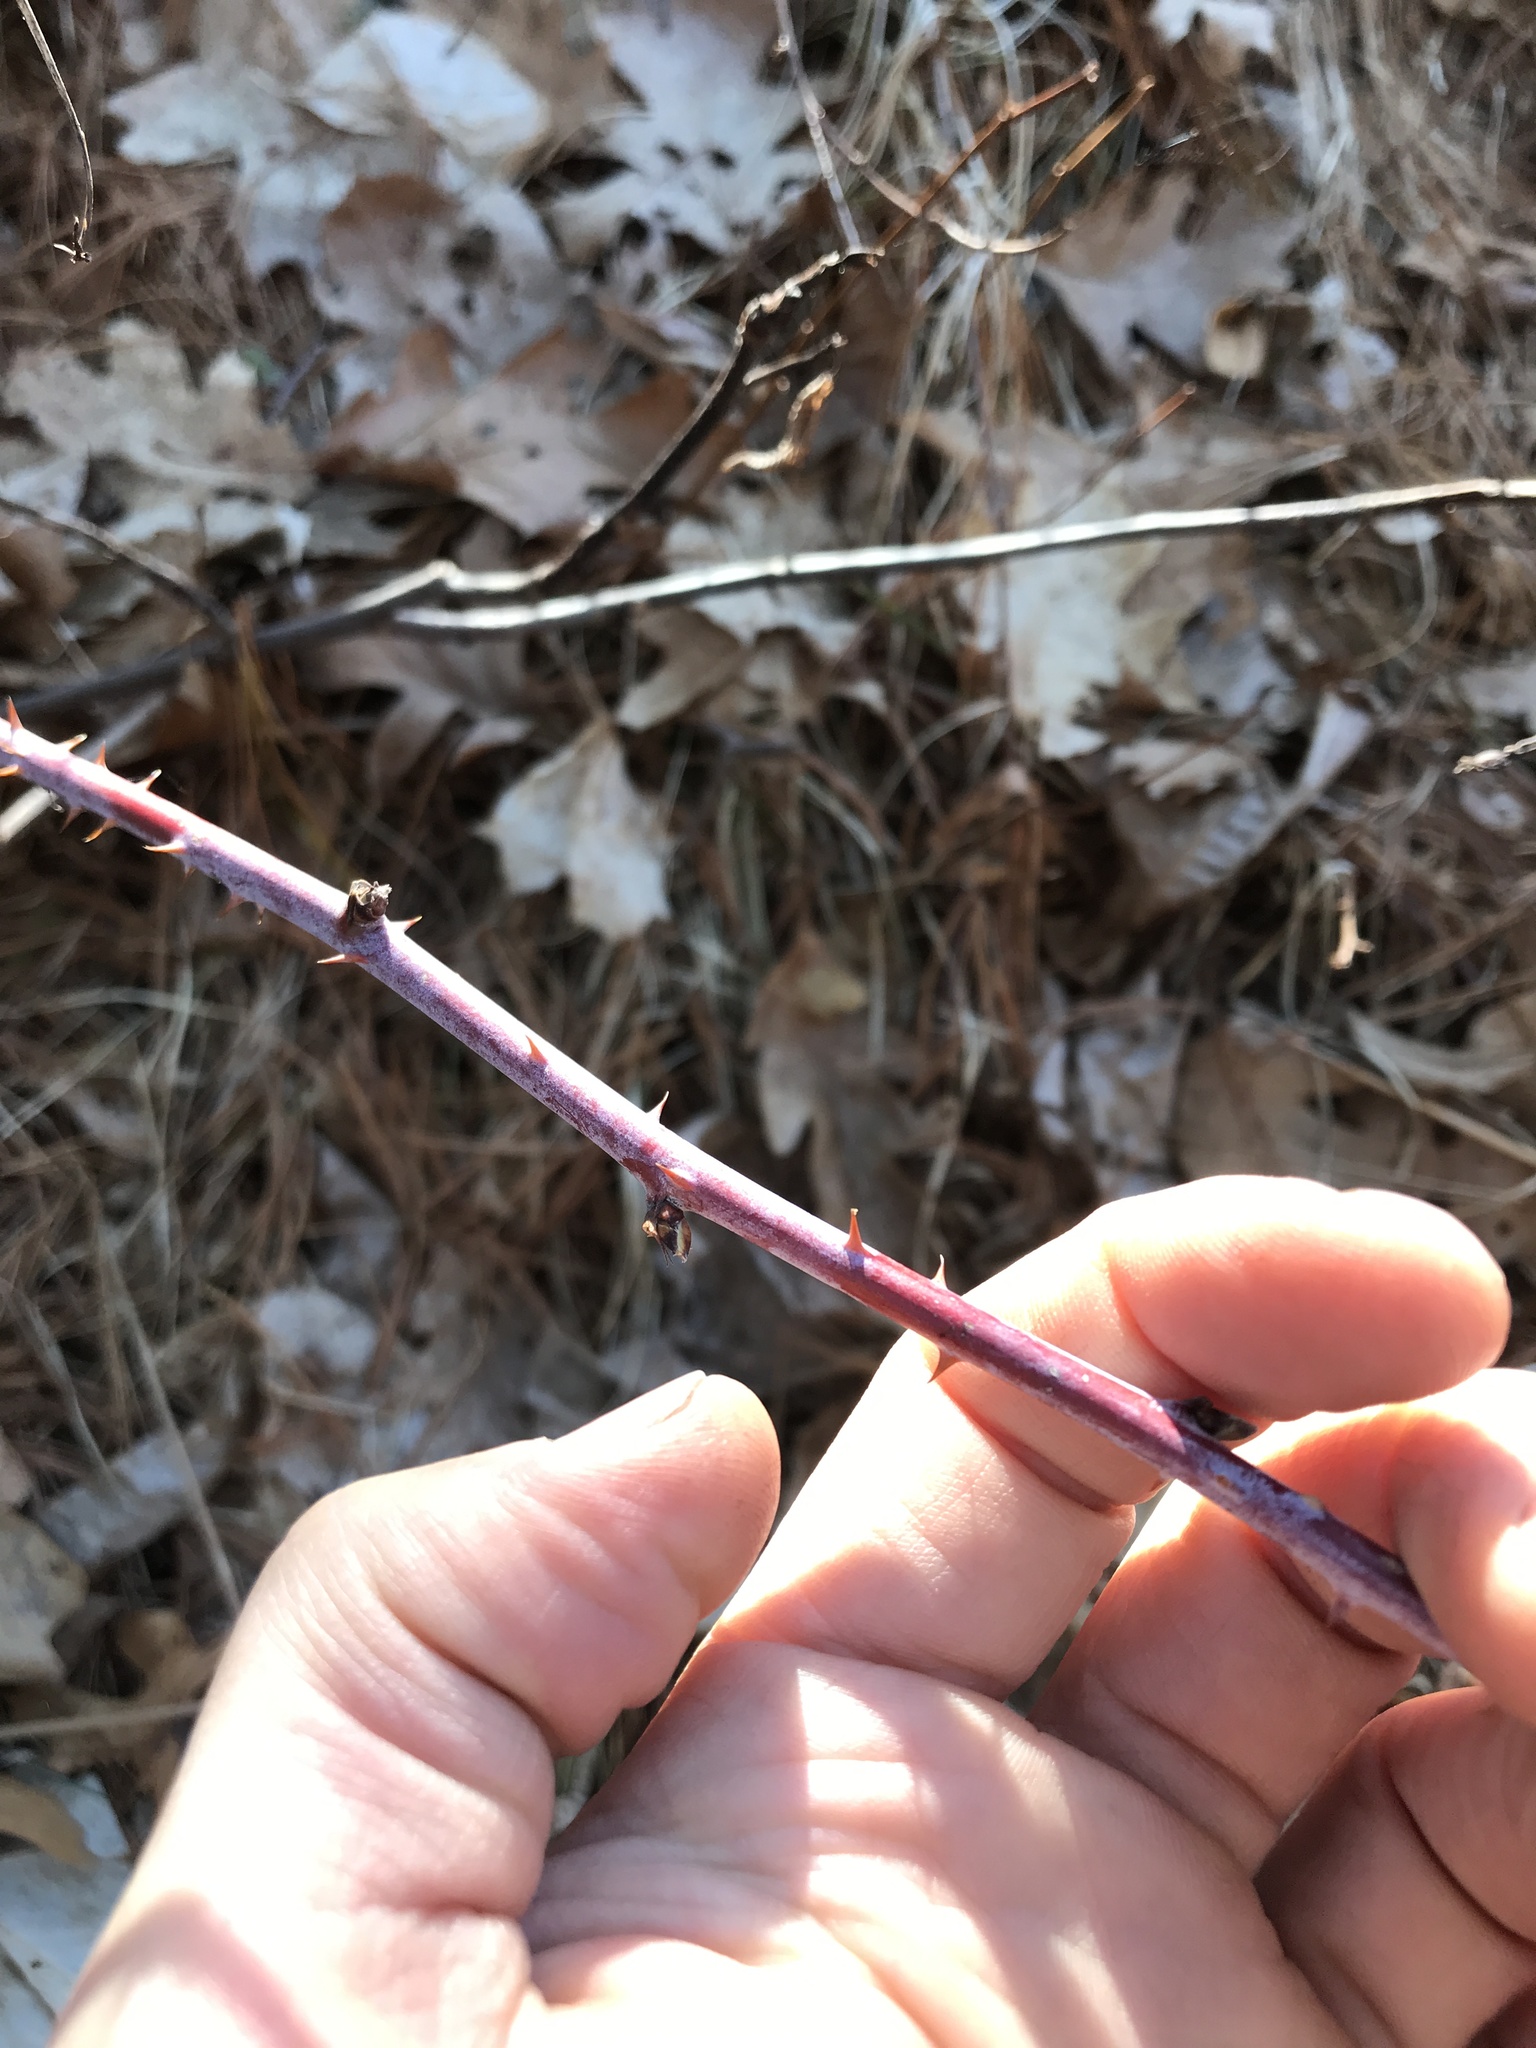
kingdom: Plantae
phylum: Tracheophyta
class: Magnoliopsida
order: Rosales
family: Rosaceae
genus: Rubus
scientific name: Rubus occidentalis
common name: Black raspberry
